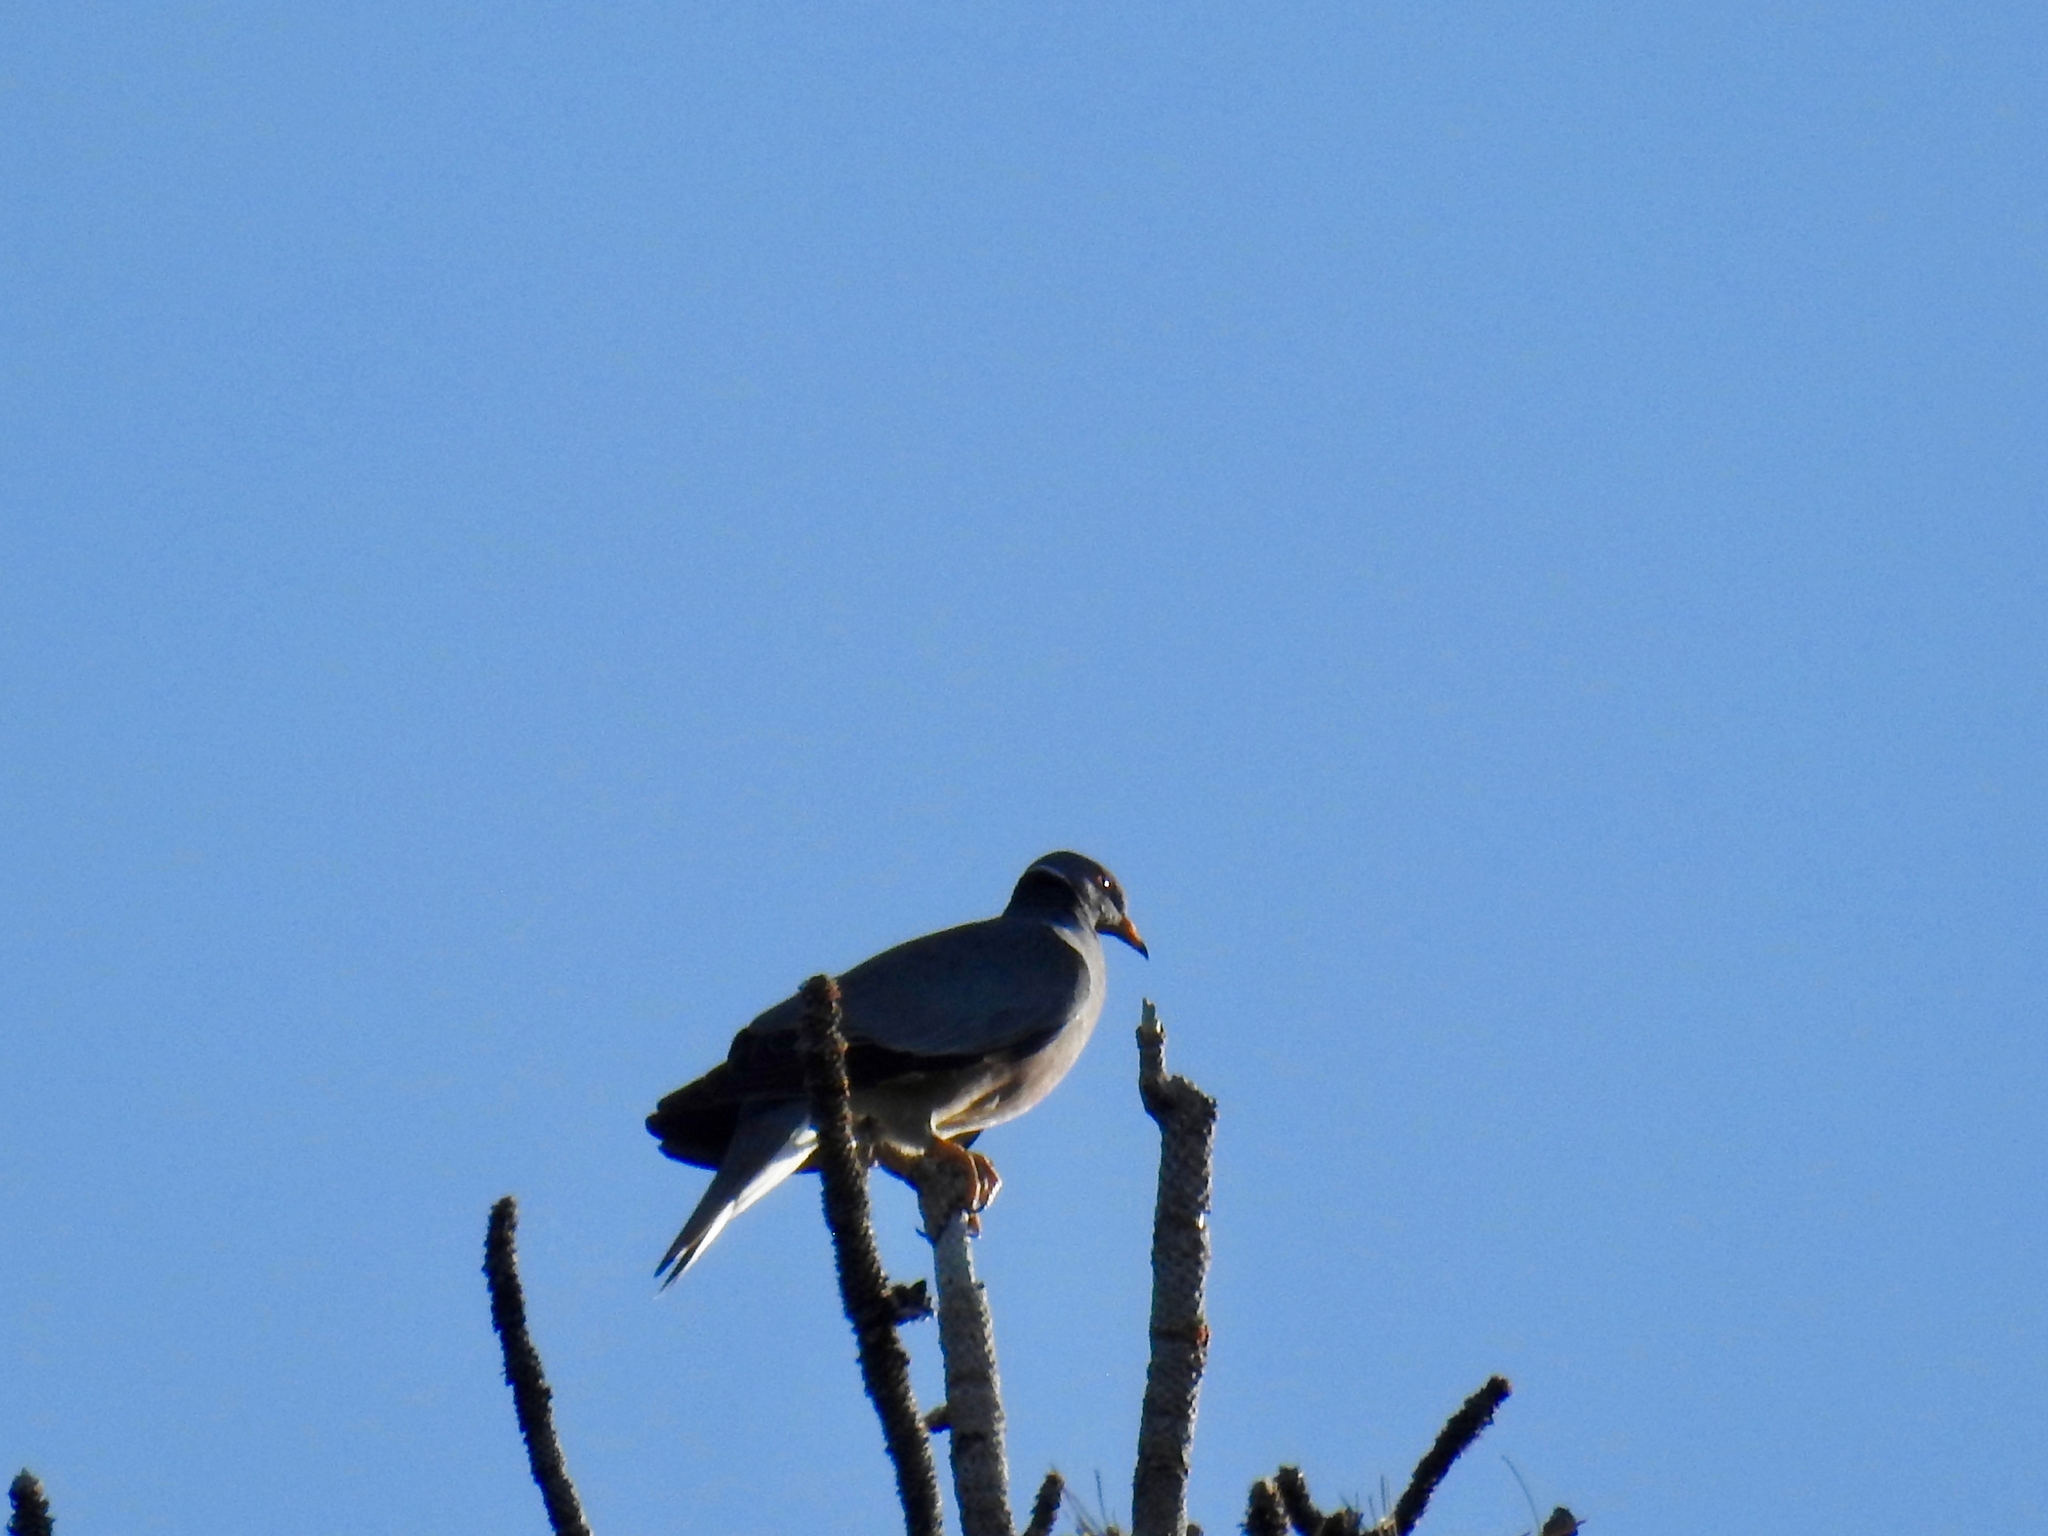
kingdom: Animalia
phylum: Chordata
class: Aves
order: Columbiformes
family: Columbidae
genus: Patagioenas
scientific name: Patagioenas fasciata
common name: Band-tailed pigeon
